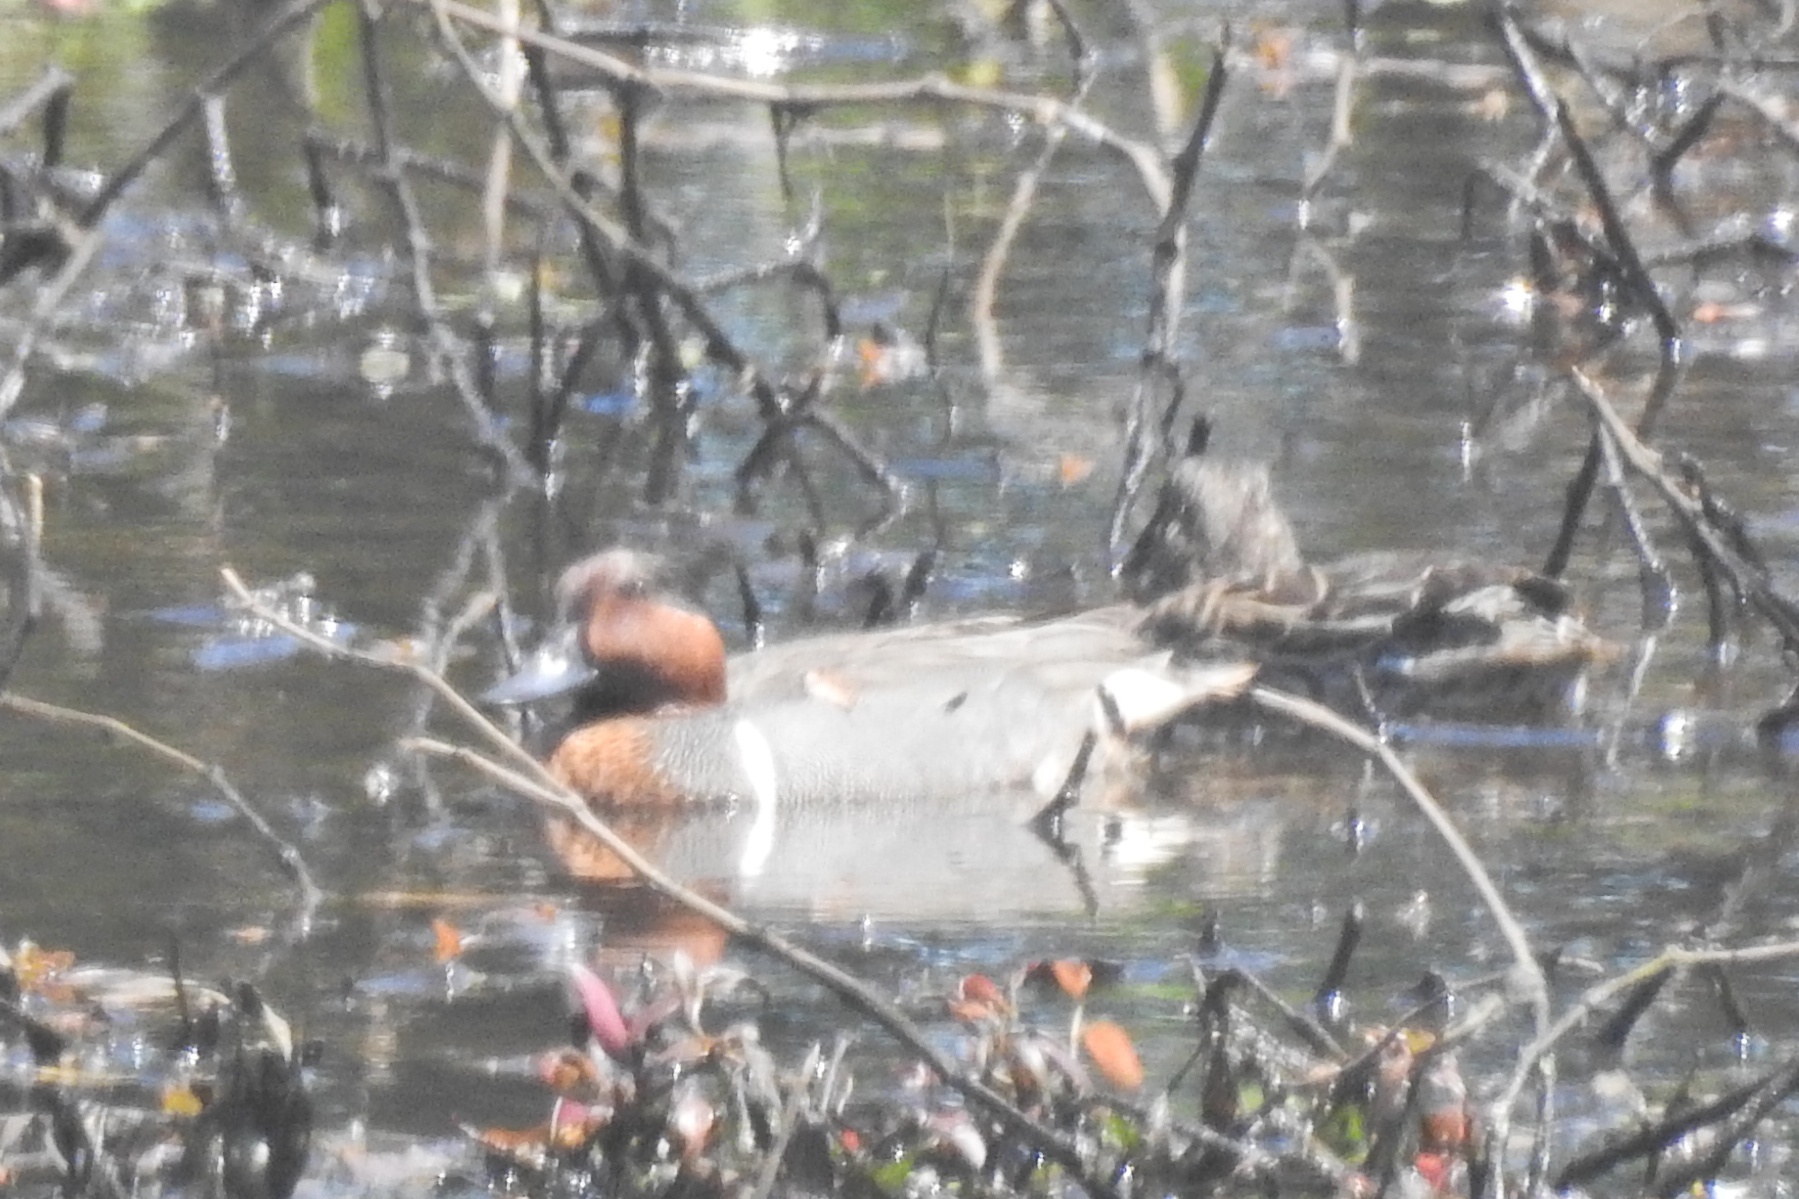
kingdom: Animalia
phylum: Chordata
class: Aves
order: Anseriformes
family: Anatidae
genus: Anas
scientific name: Anas crecca
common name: Eurasian teal
